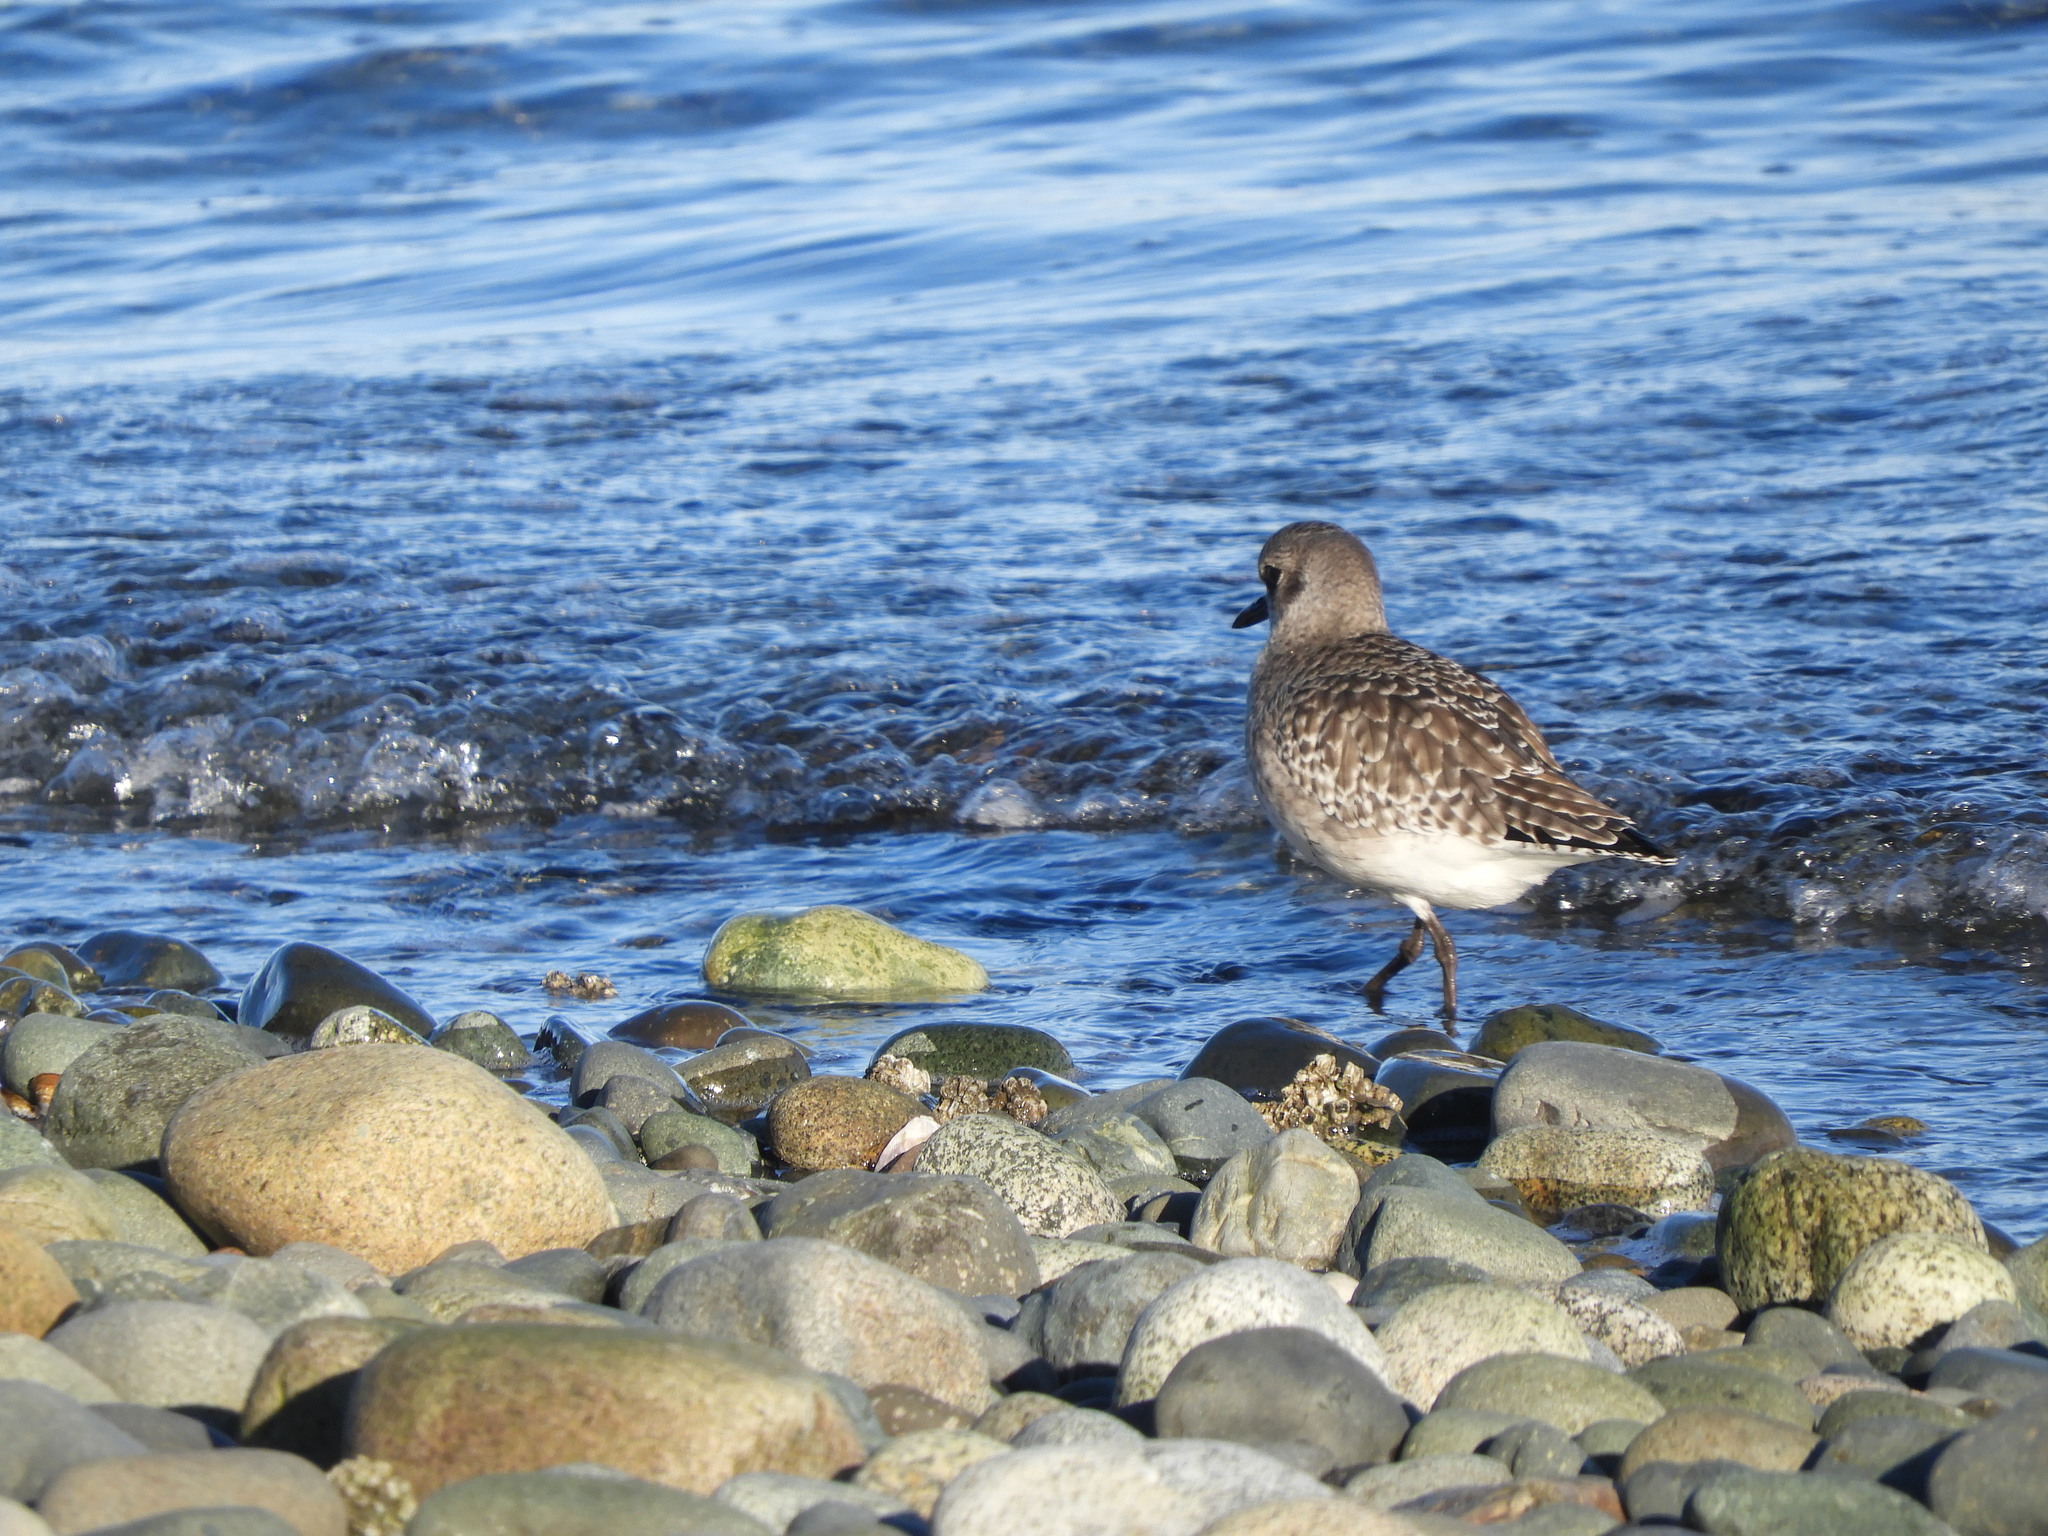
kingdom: Animalia
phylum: Chordata
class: Aves
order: Charadriiformes
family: Charadriidae
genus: Pluvialis
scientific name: Pluvialis squatarola
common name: Grey plover
